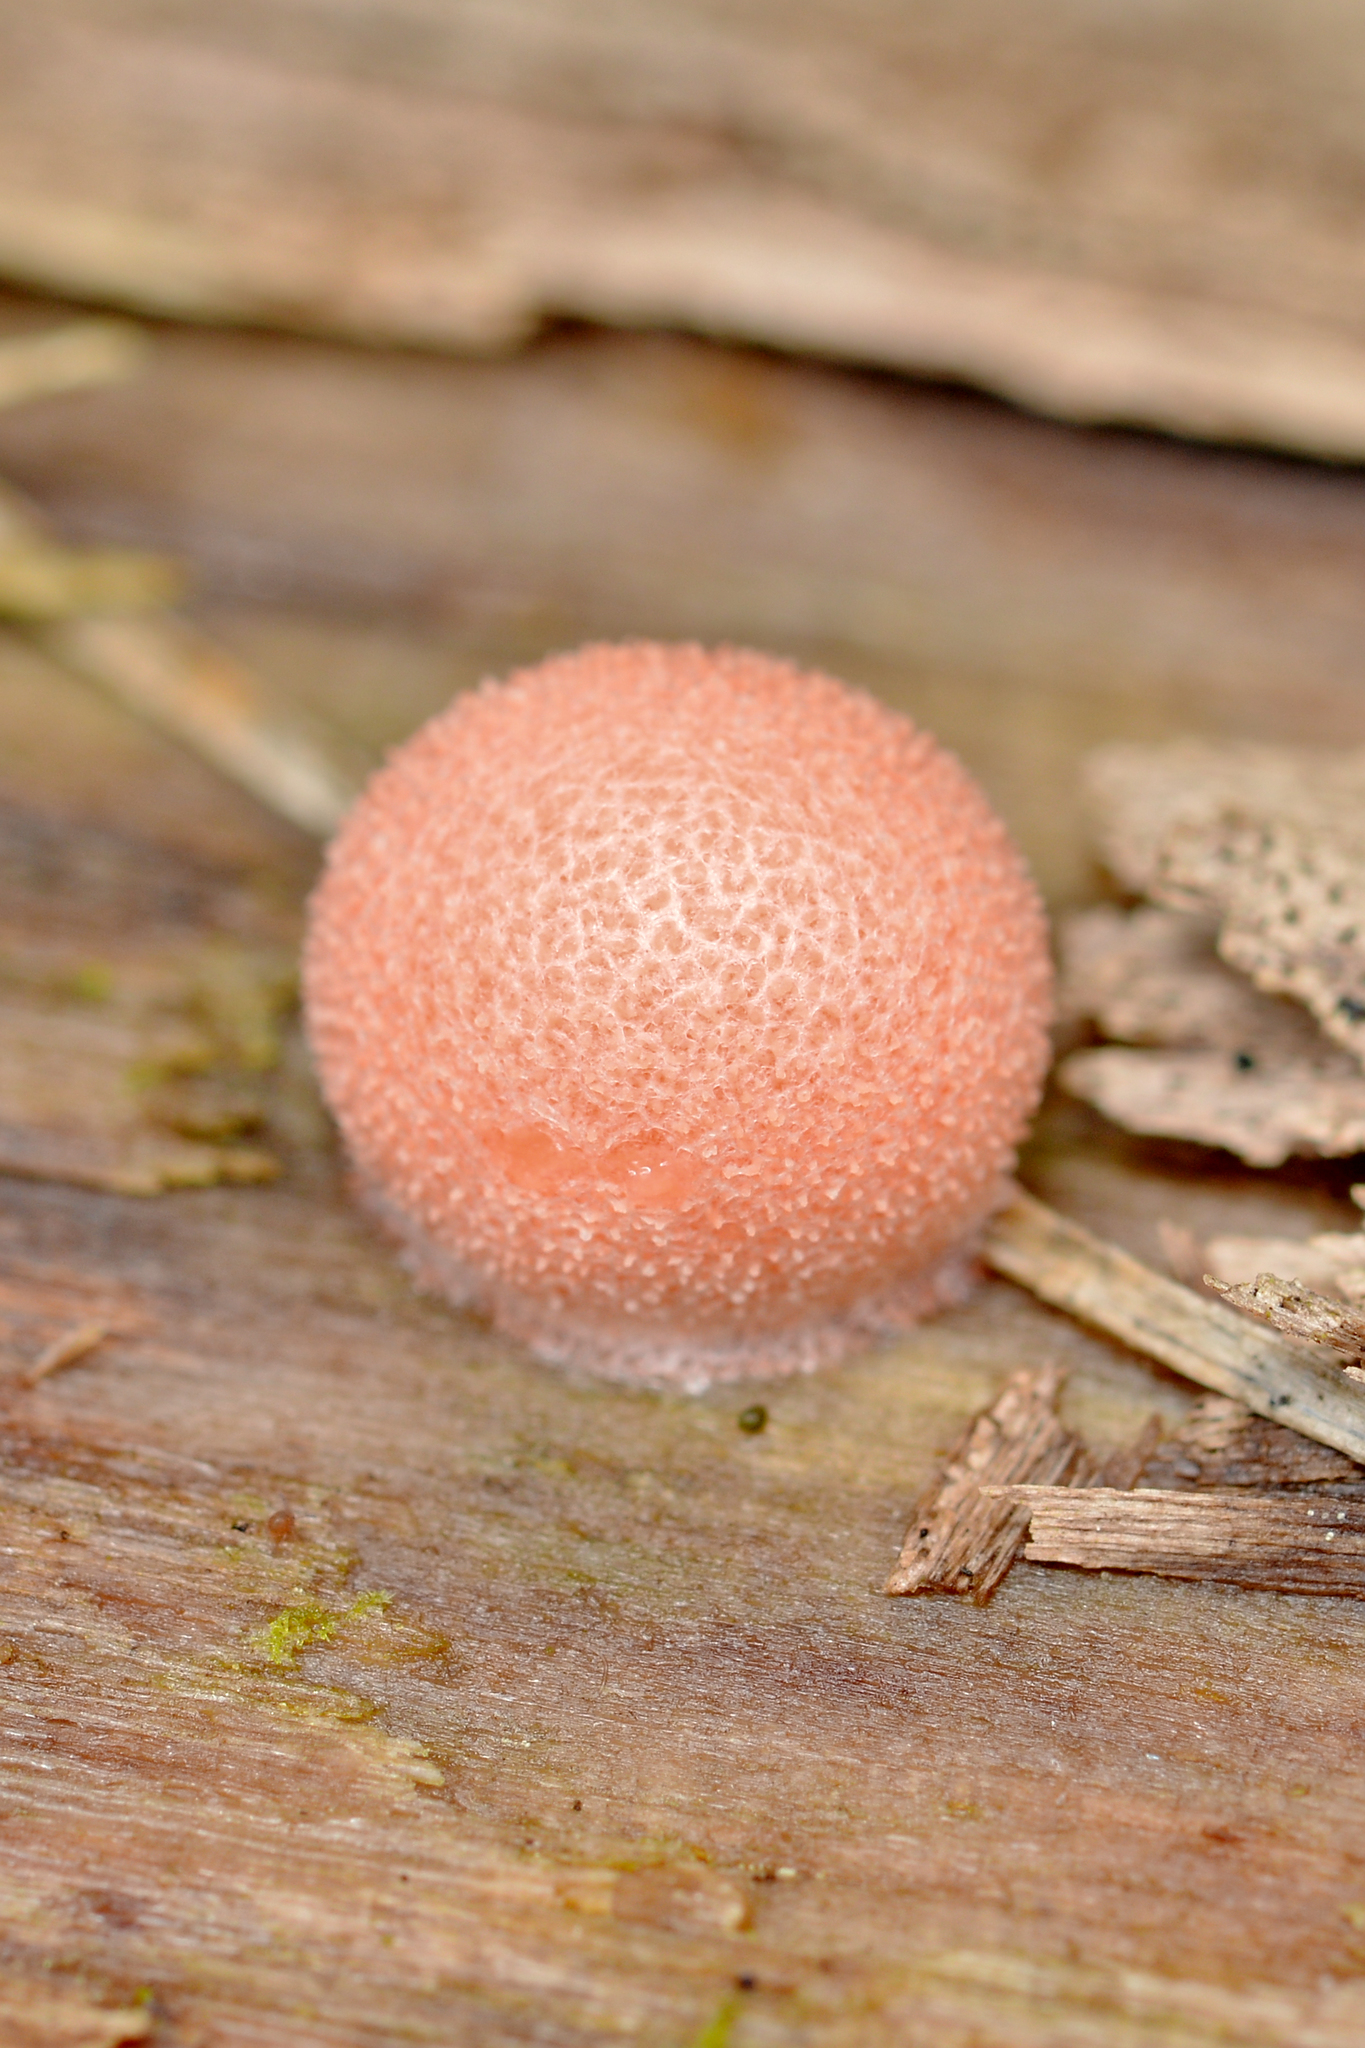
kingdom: Protozoa
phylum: Mycetozoa
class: Myxomycetes
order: Cribrariales
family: Tubiferaceae
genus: Lycogala
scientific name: Lycogala epidendrum
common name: Wolf's milk
